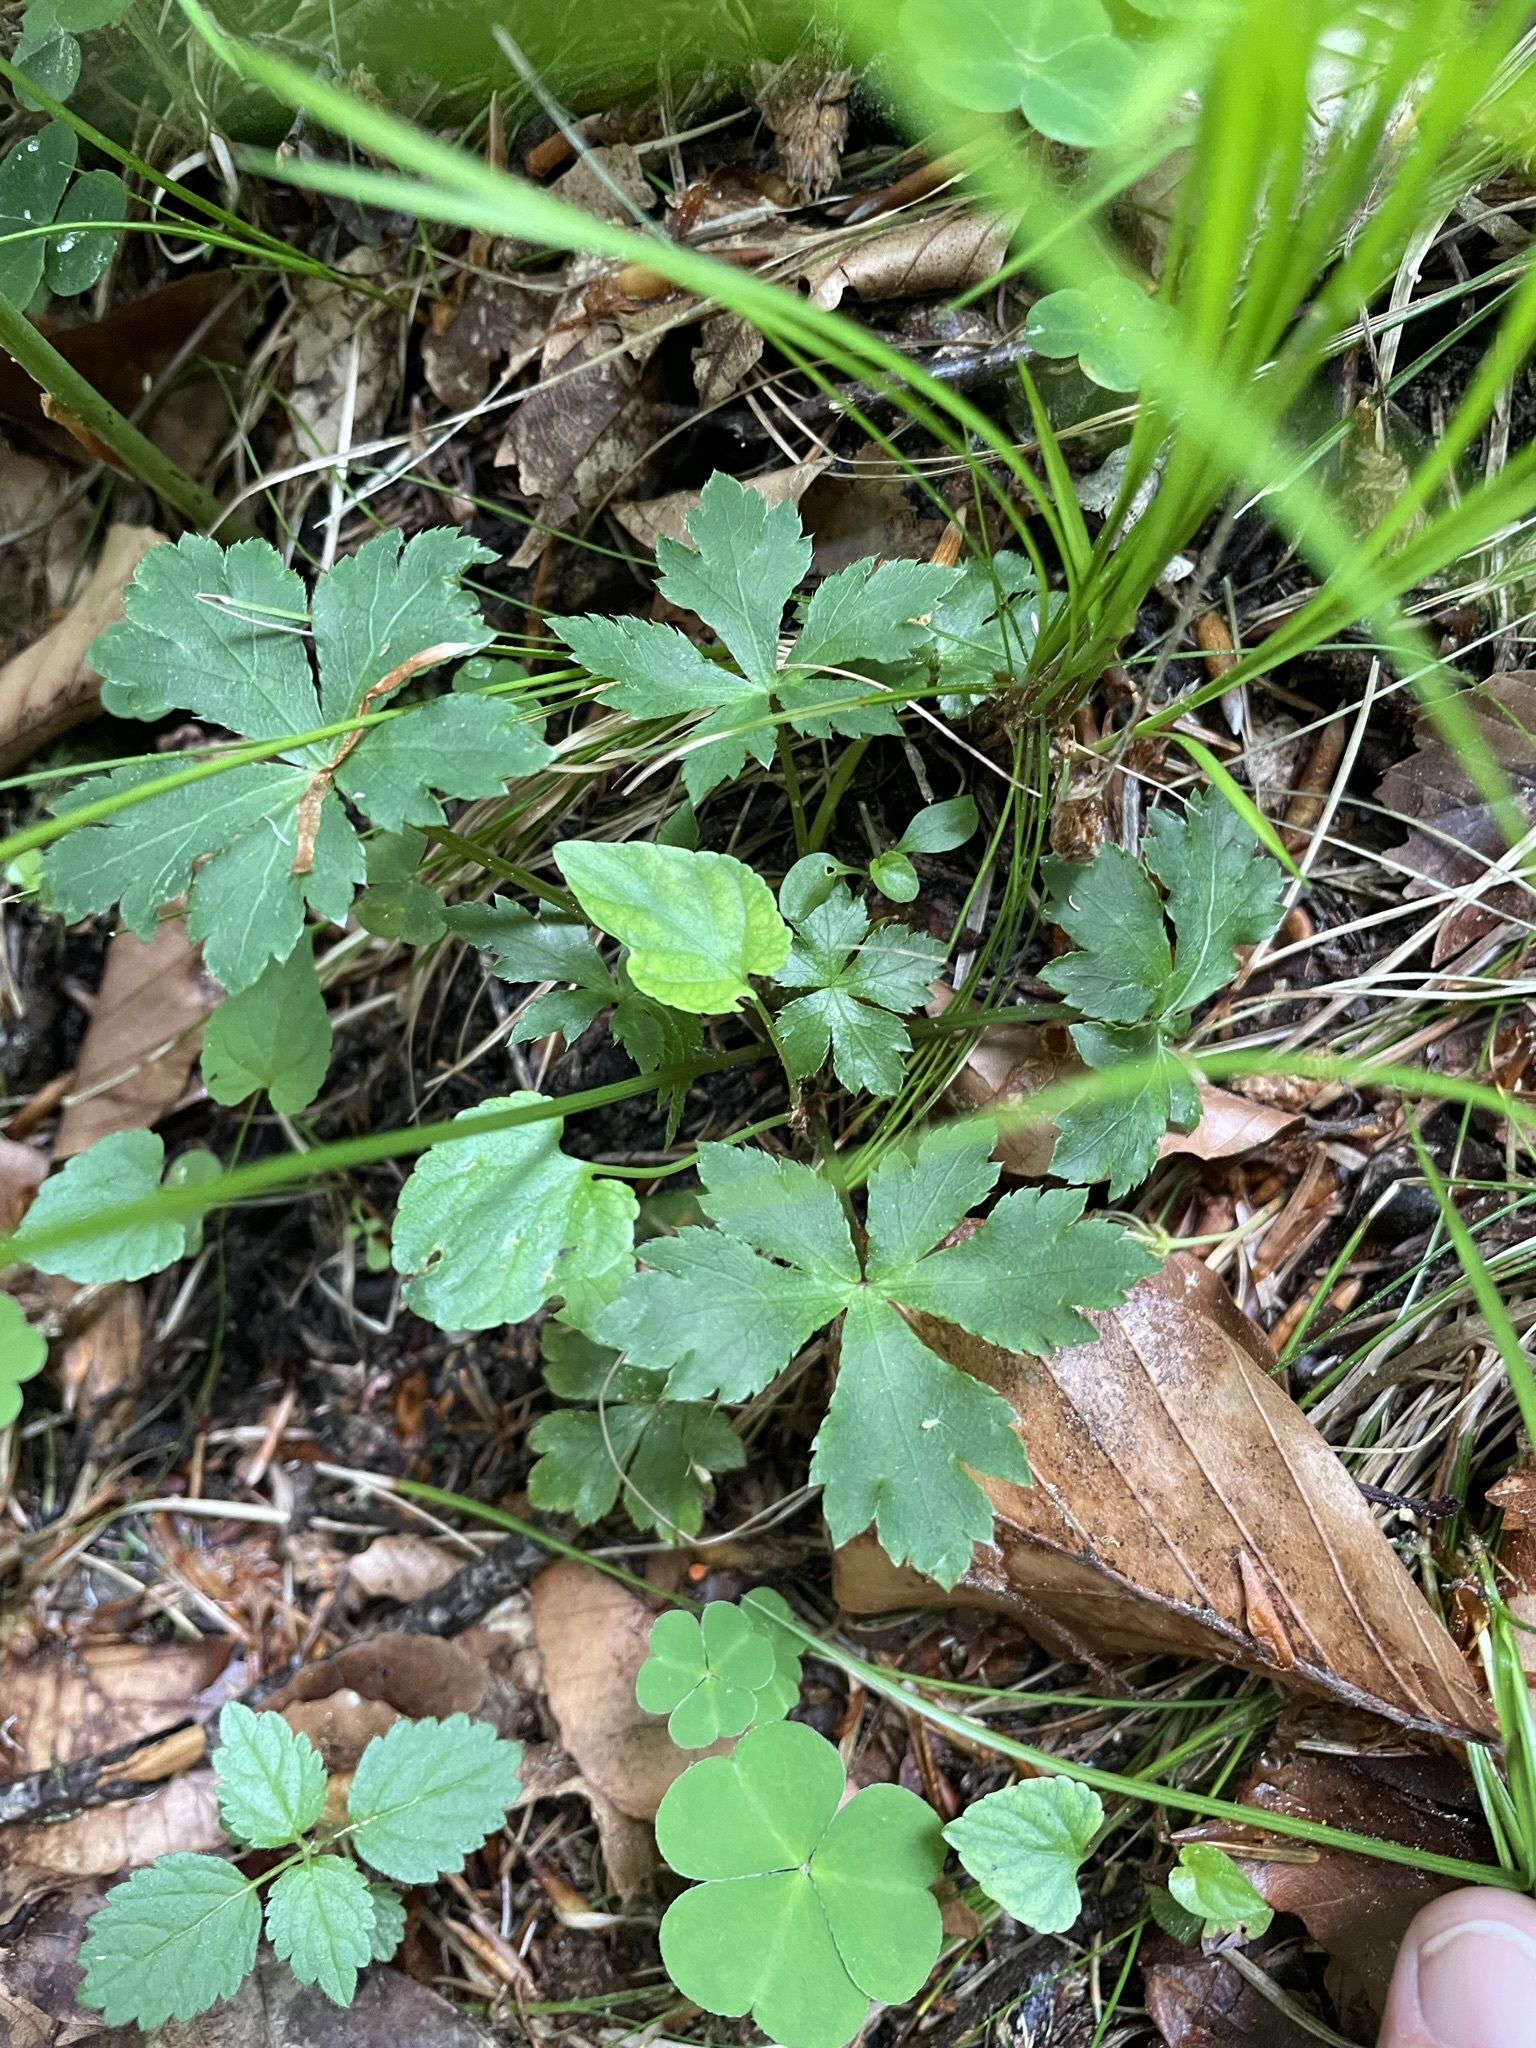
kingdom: Plantae
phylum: Tracheophyta
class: Magnoliopsida
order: Apiales
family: Apiaceae
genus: Sanicula
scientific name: Sanicula europaea
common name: Sanicle
